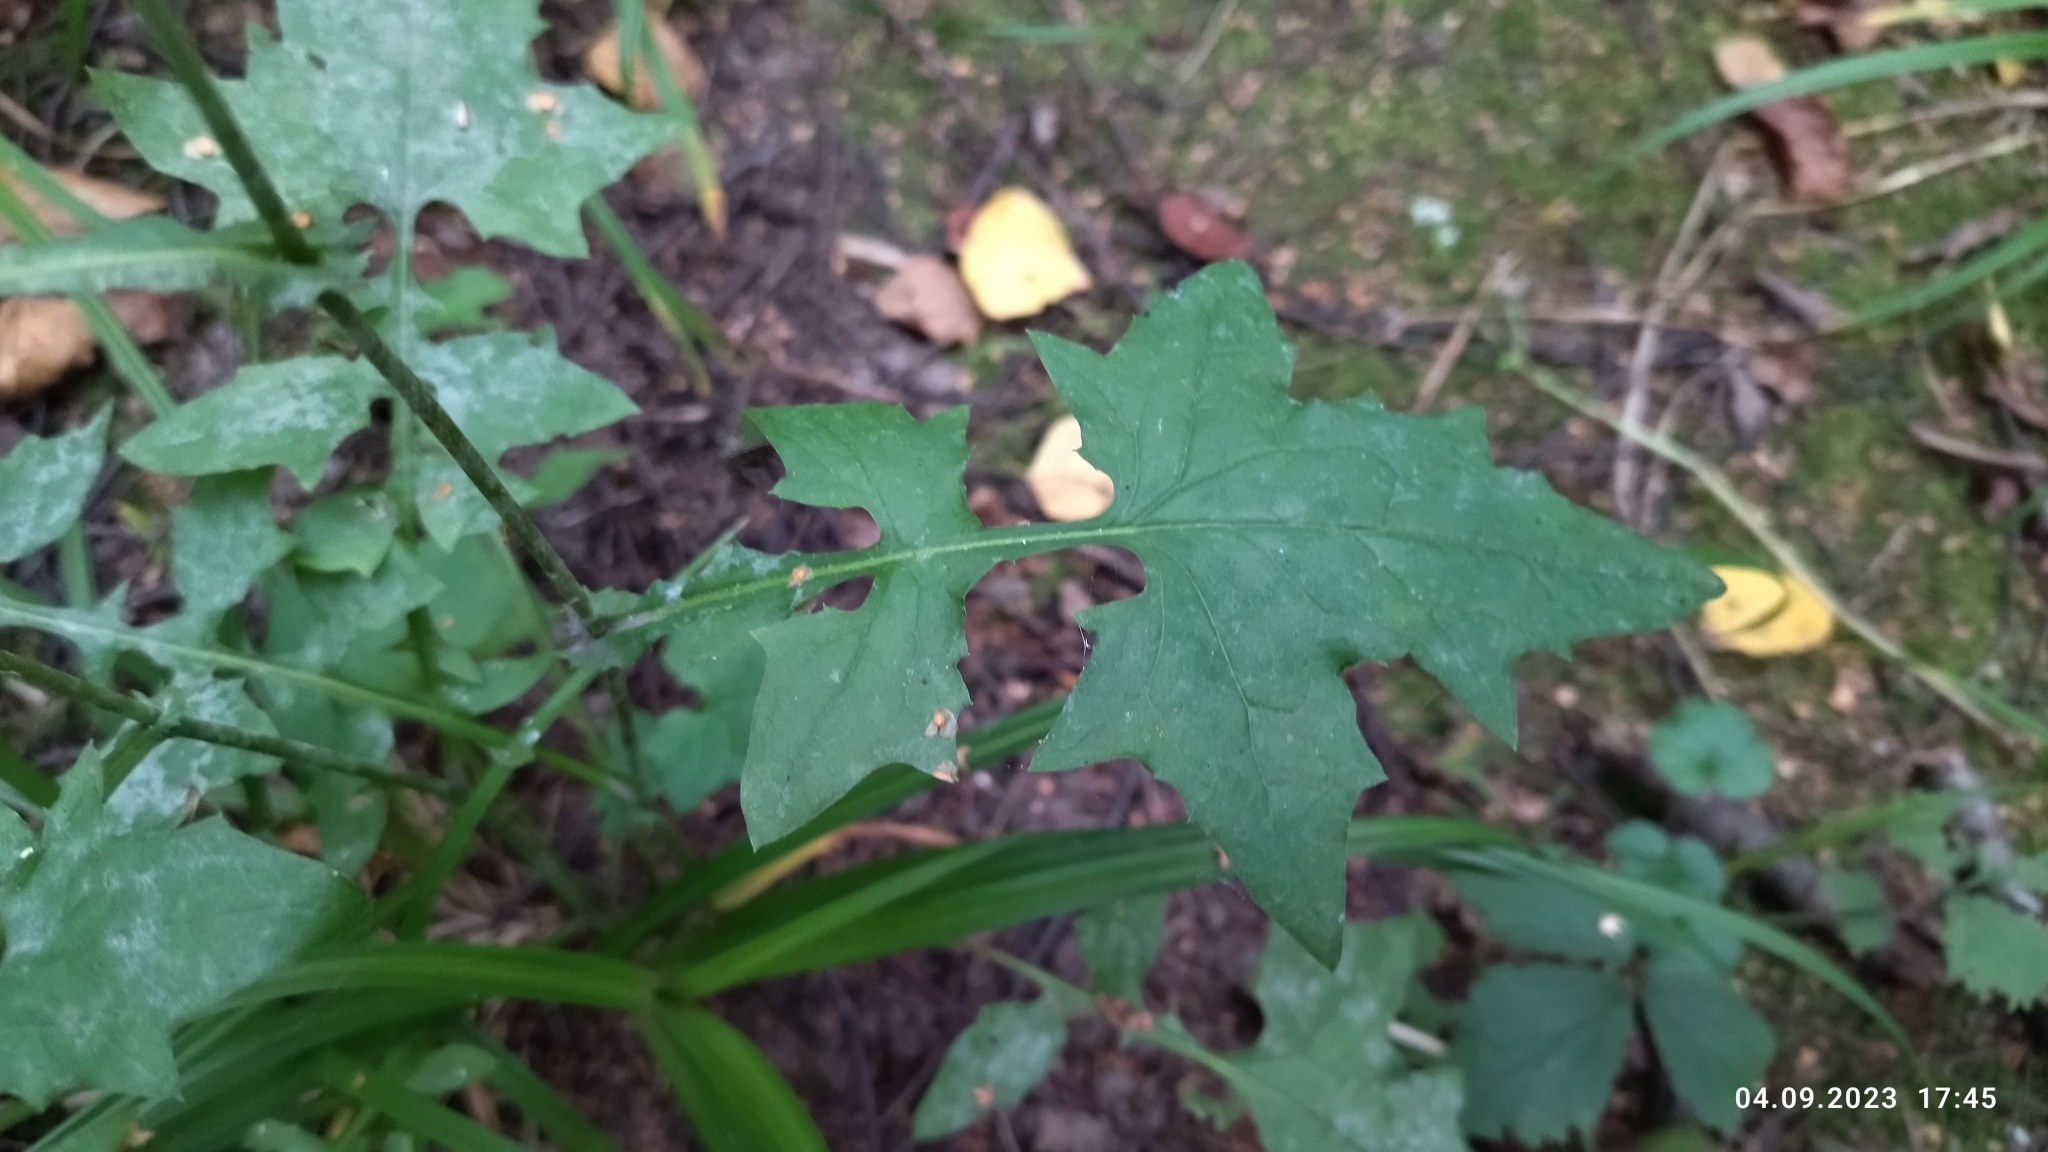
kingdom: Plantae
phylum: Tracheophyta
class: Magnoliopsida
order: Asterales
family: Asteraceae
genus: Mycelis
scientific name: Mycelis muralis
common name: Wall lettuce
